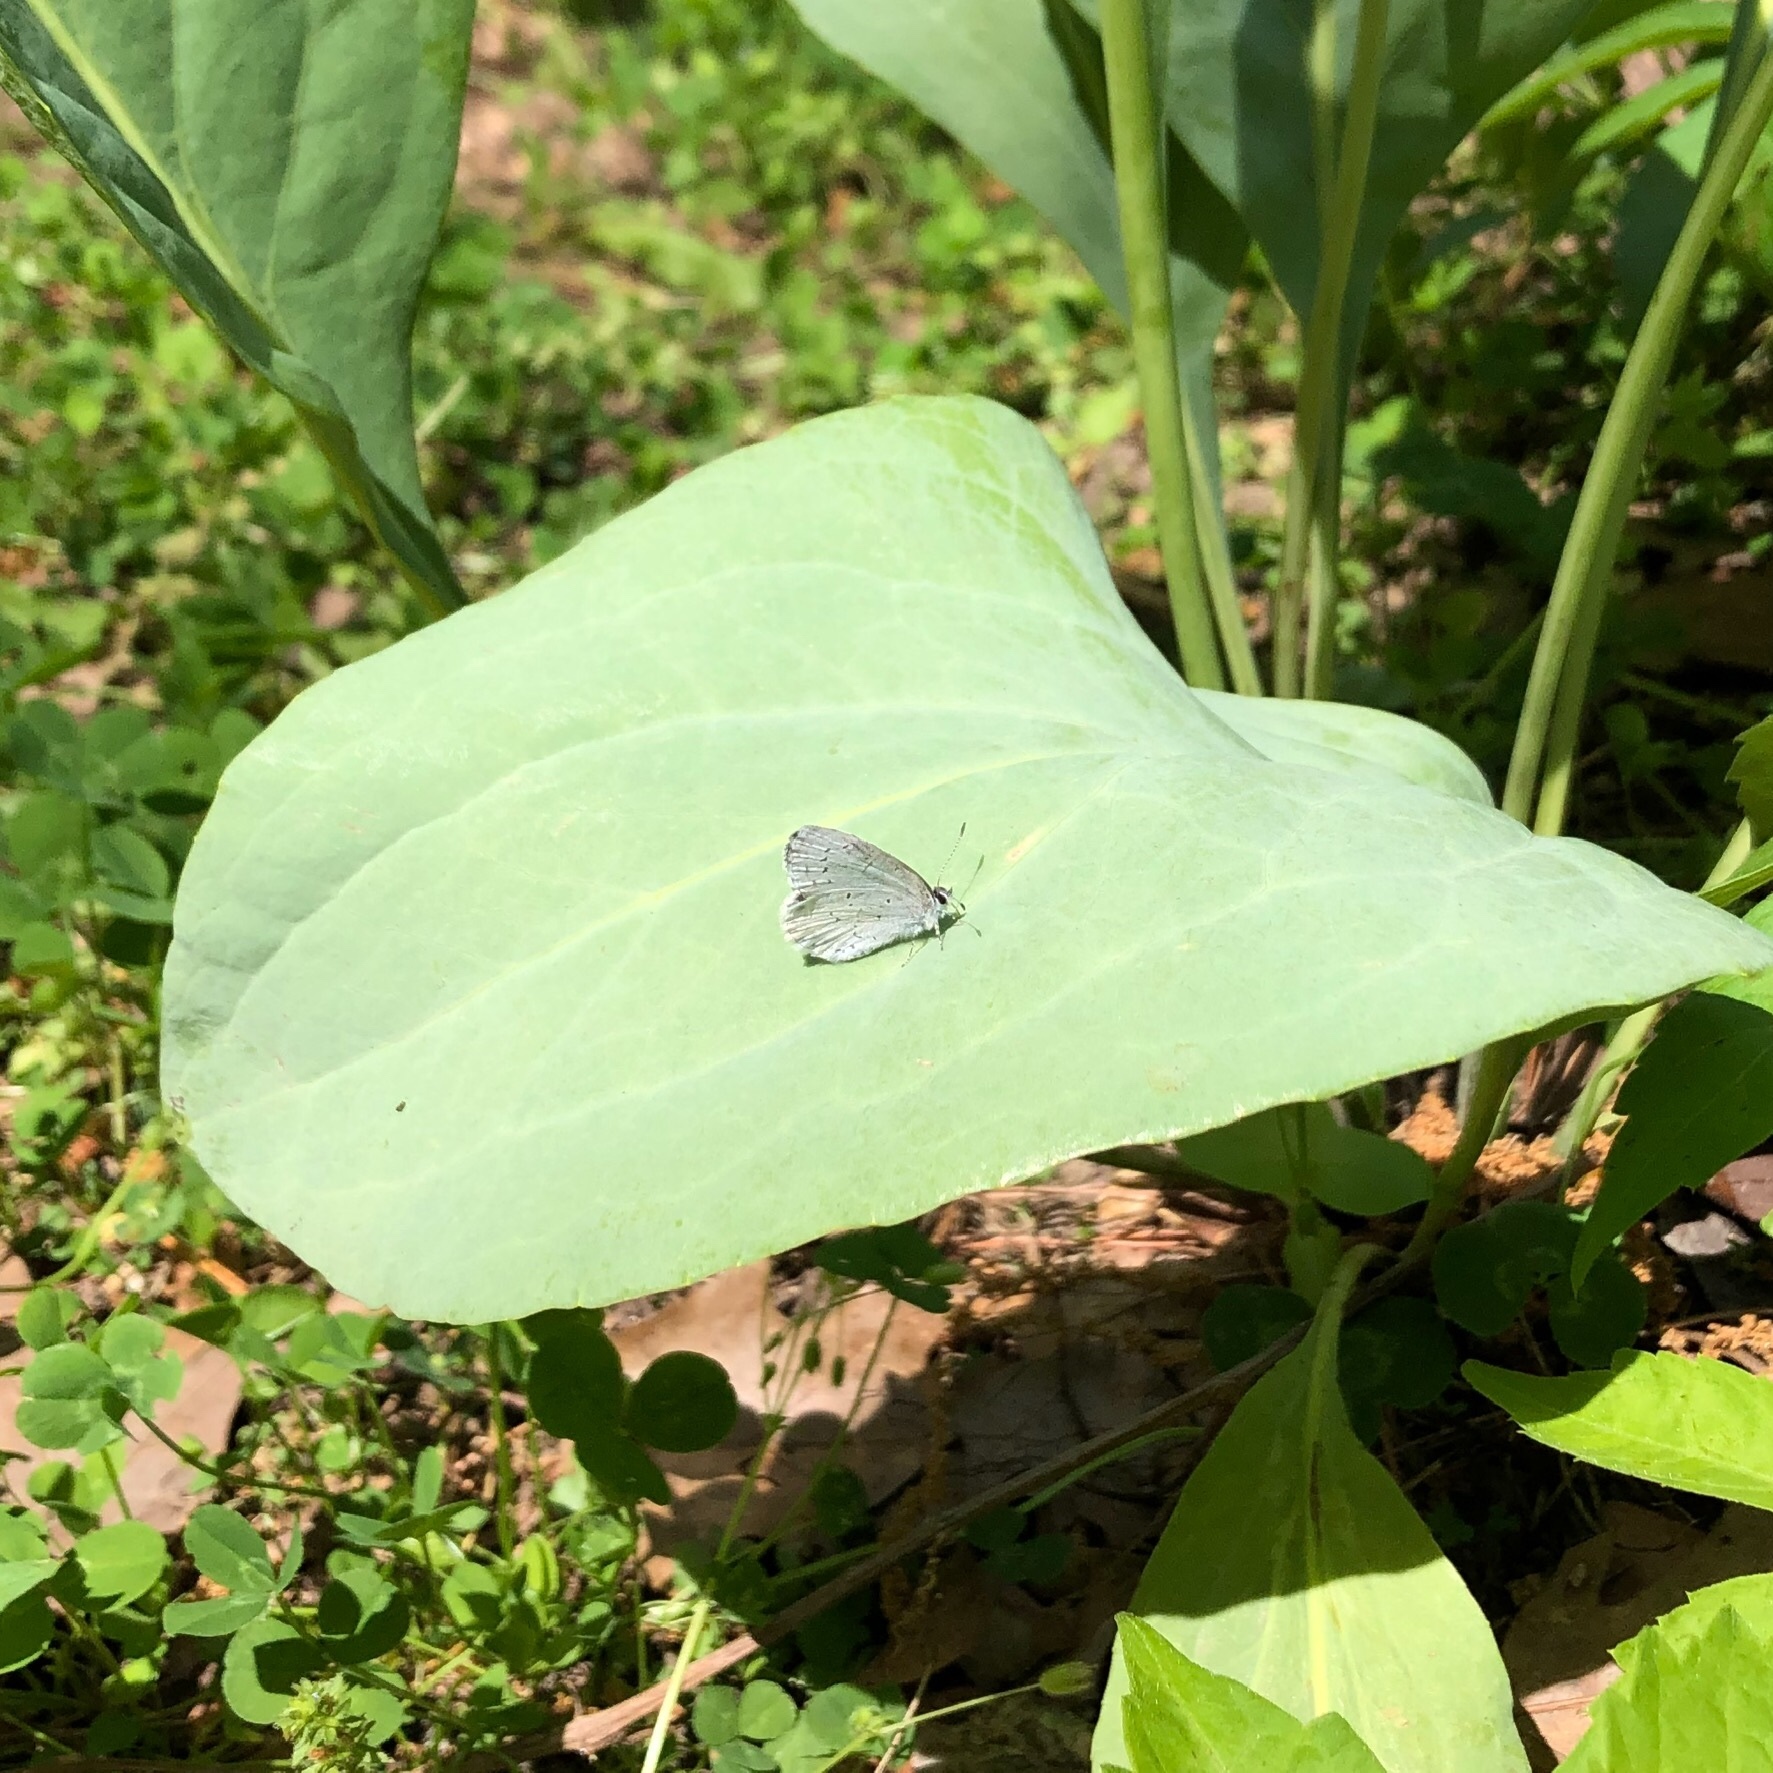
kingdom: Animalia
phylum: Arthropoda
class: Insecta
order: Lepidoptera
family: Lycaenidae
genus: Cyaniris
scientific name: Cyaniris neglecta
